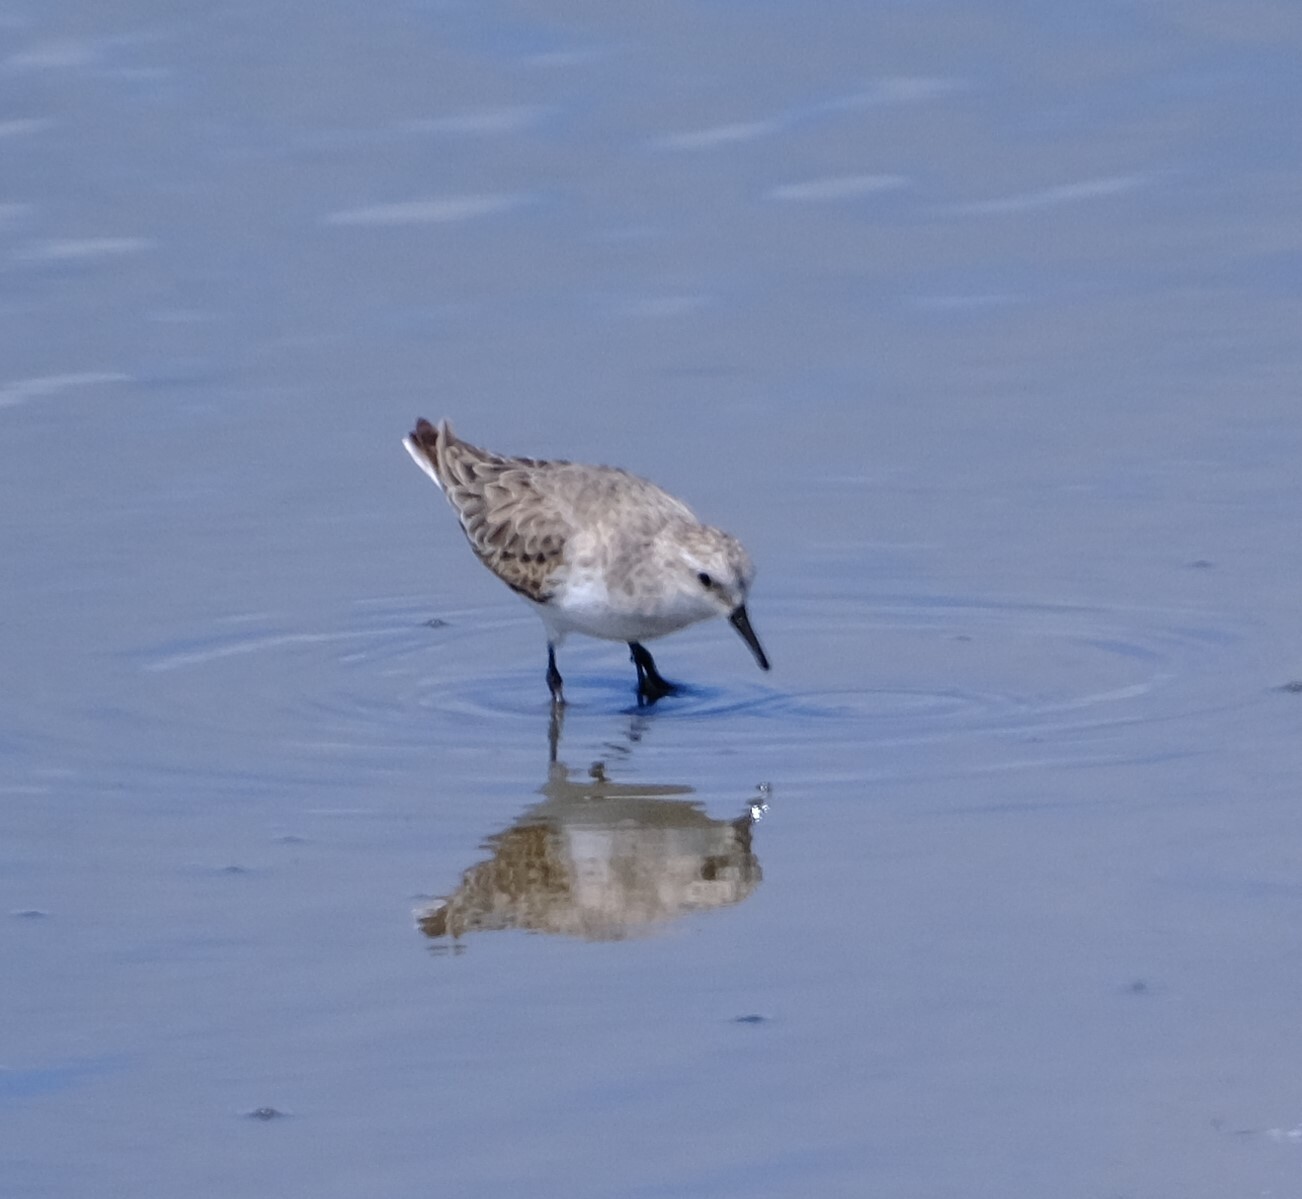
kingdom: Animalia
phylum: Chordata
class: Aves
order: Charadriiformes
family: Scolopacidae
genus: Calidris
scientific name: Calidris ruficollis
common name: Red-necked stint
